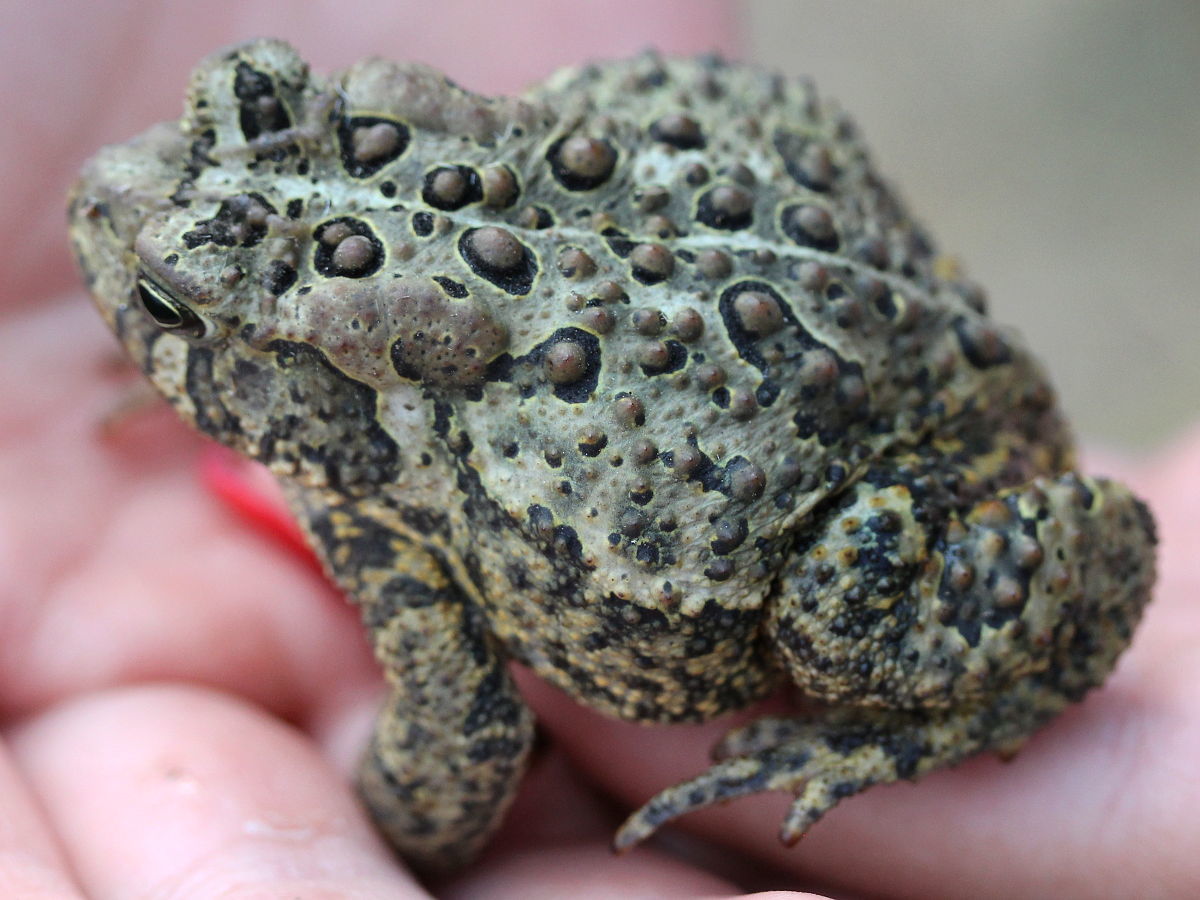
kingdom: Animalia
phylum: Chordata
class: Amphibia
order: Anura
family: Bufonidae
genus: Anaxyrus
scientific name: Anaxyrus americanus
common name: American toad
